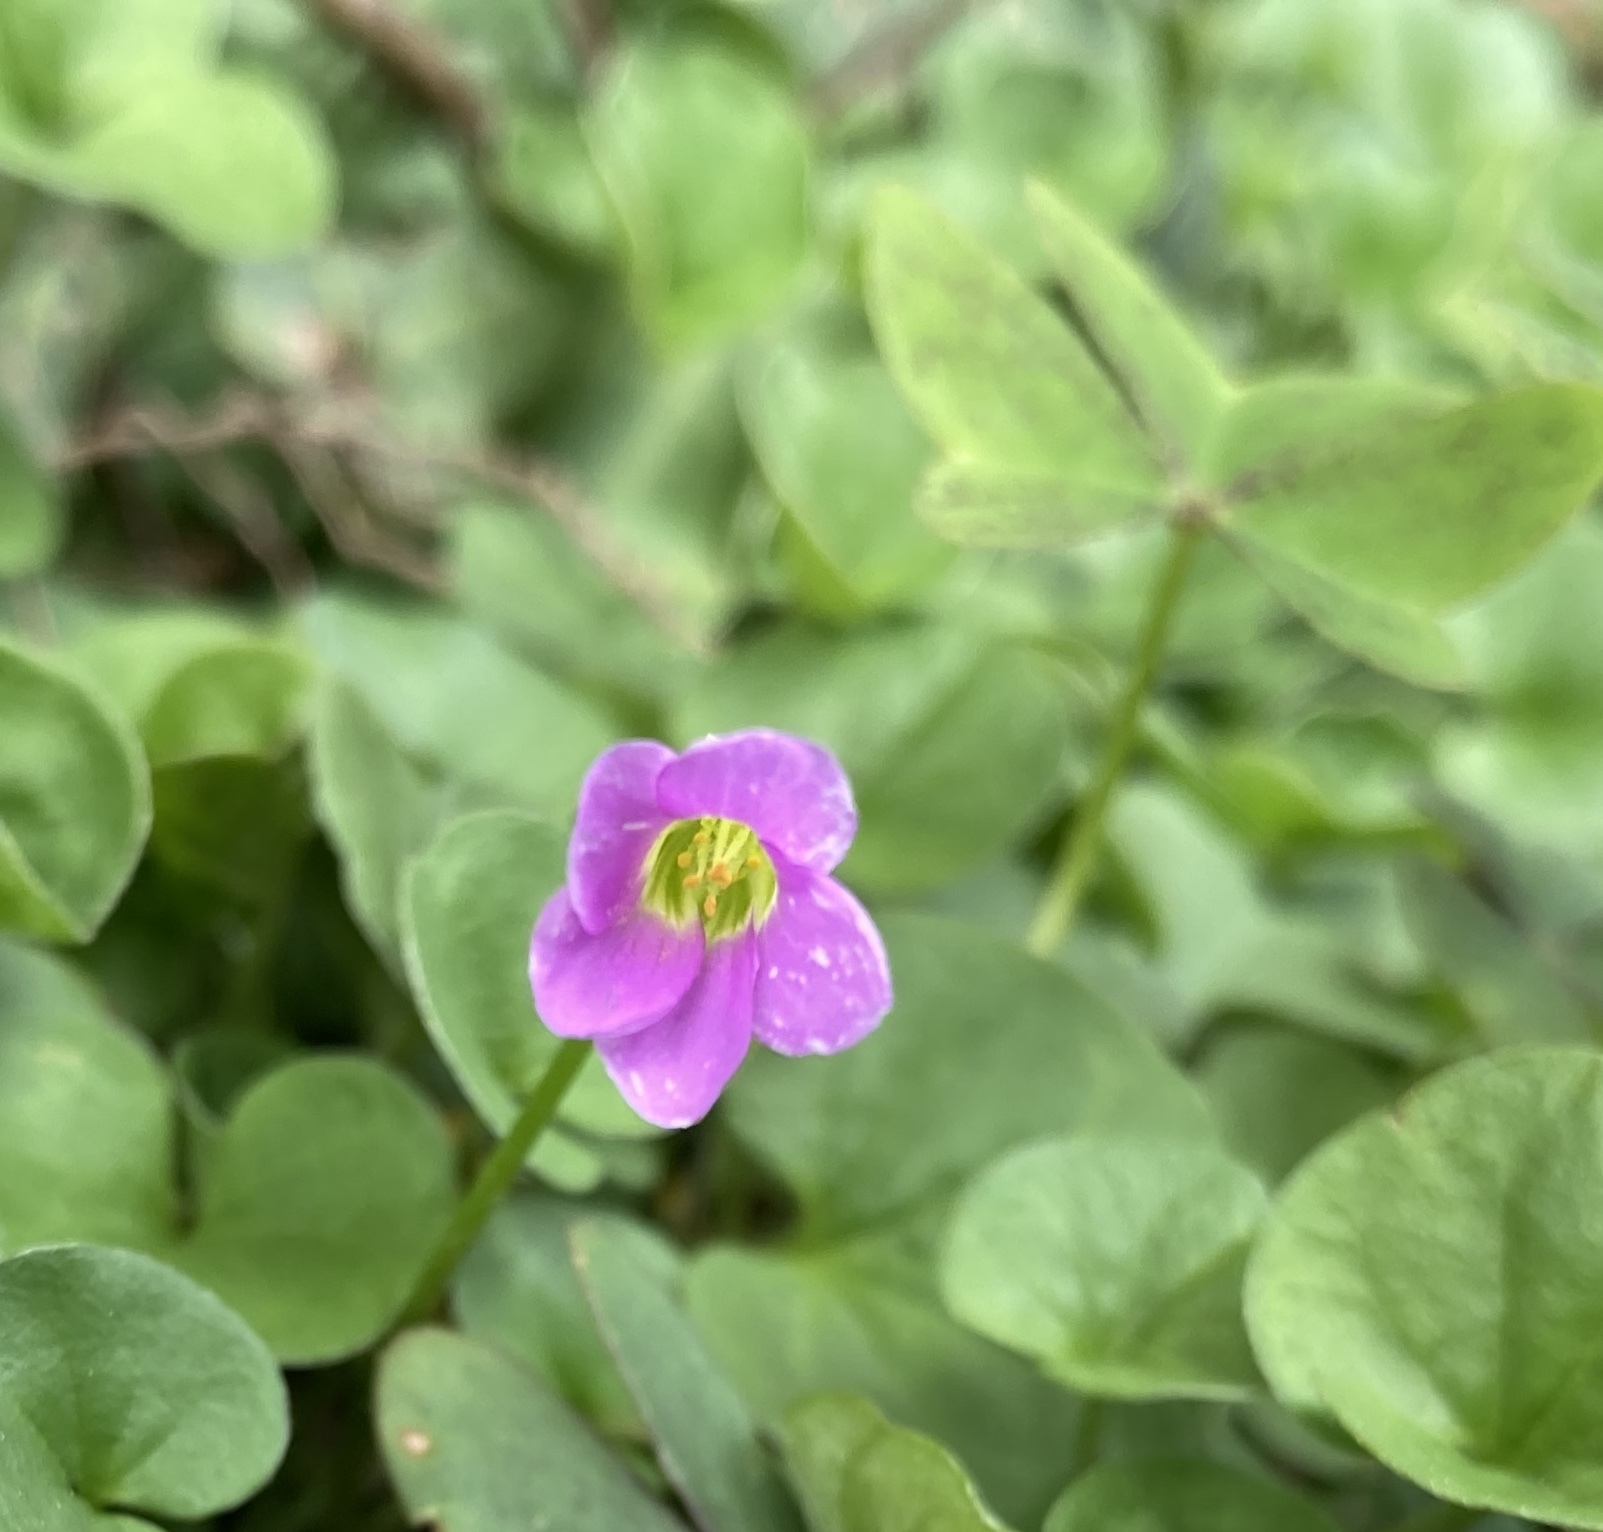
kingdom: Plantae
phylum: Tracheophyta
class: Magnoliopsida
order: Oxalidales
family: Oxalidaceae
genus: Oxalis
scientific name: Oxalis latifolia
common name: Garden pink-sorrel
